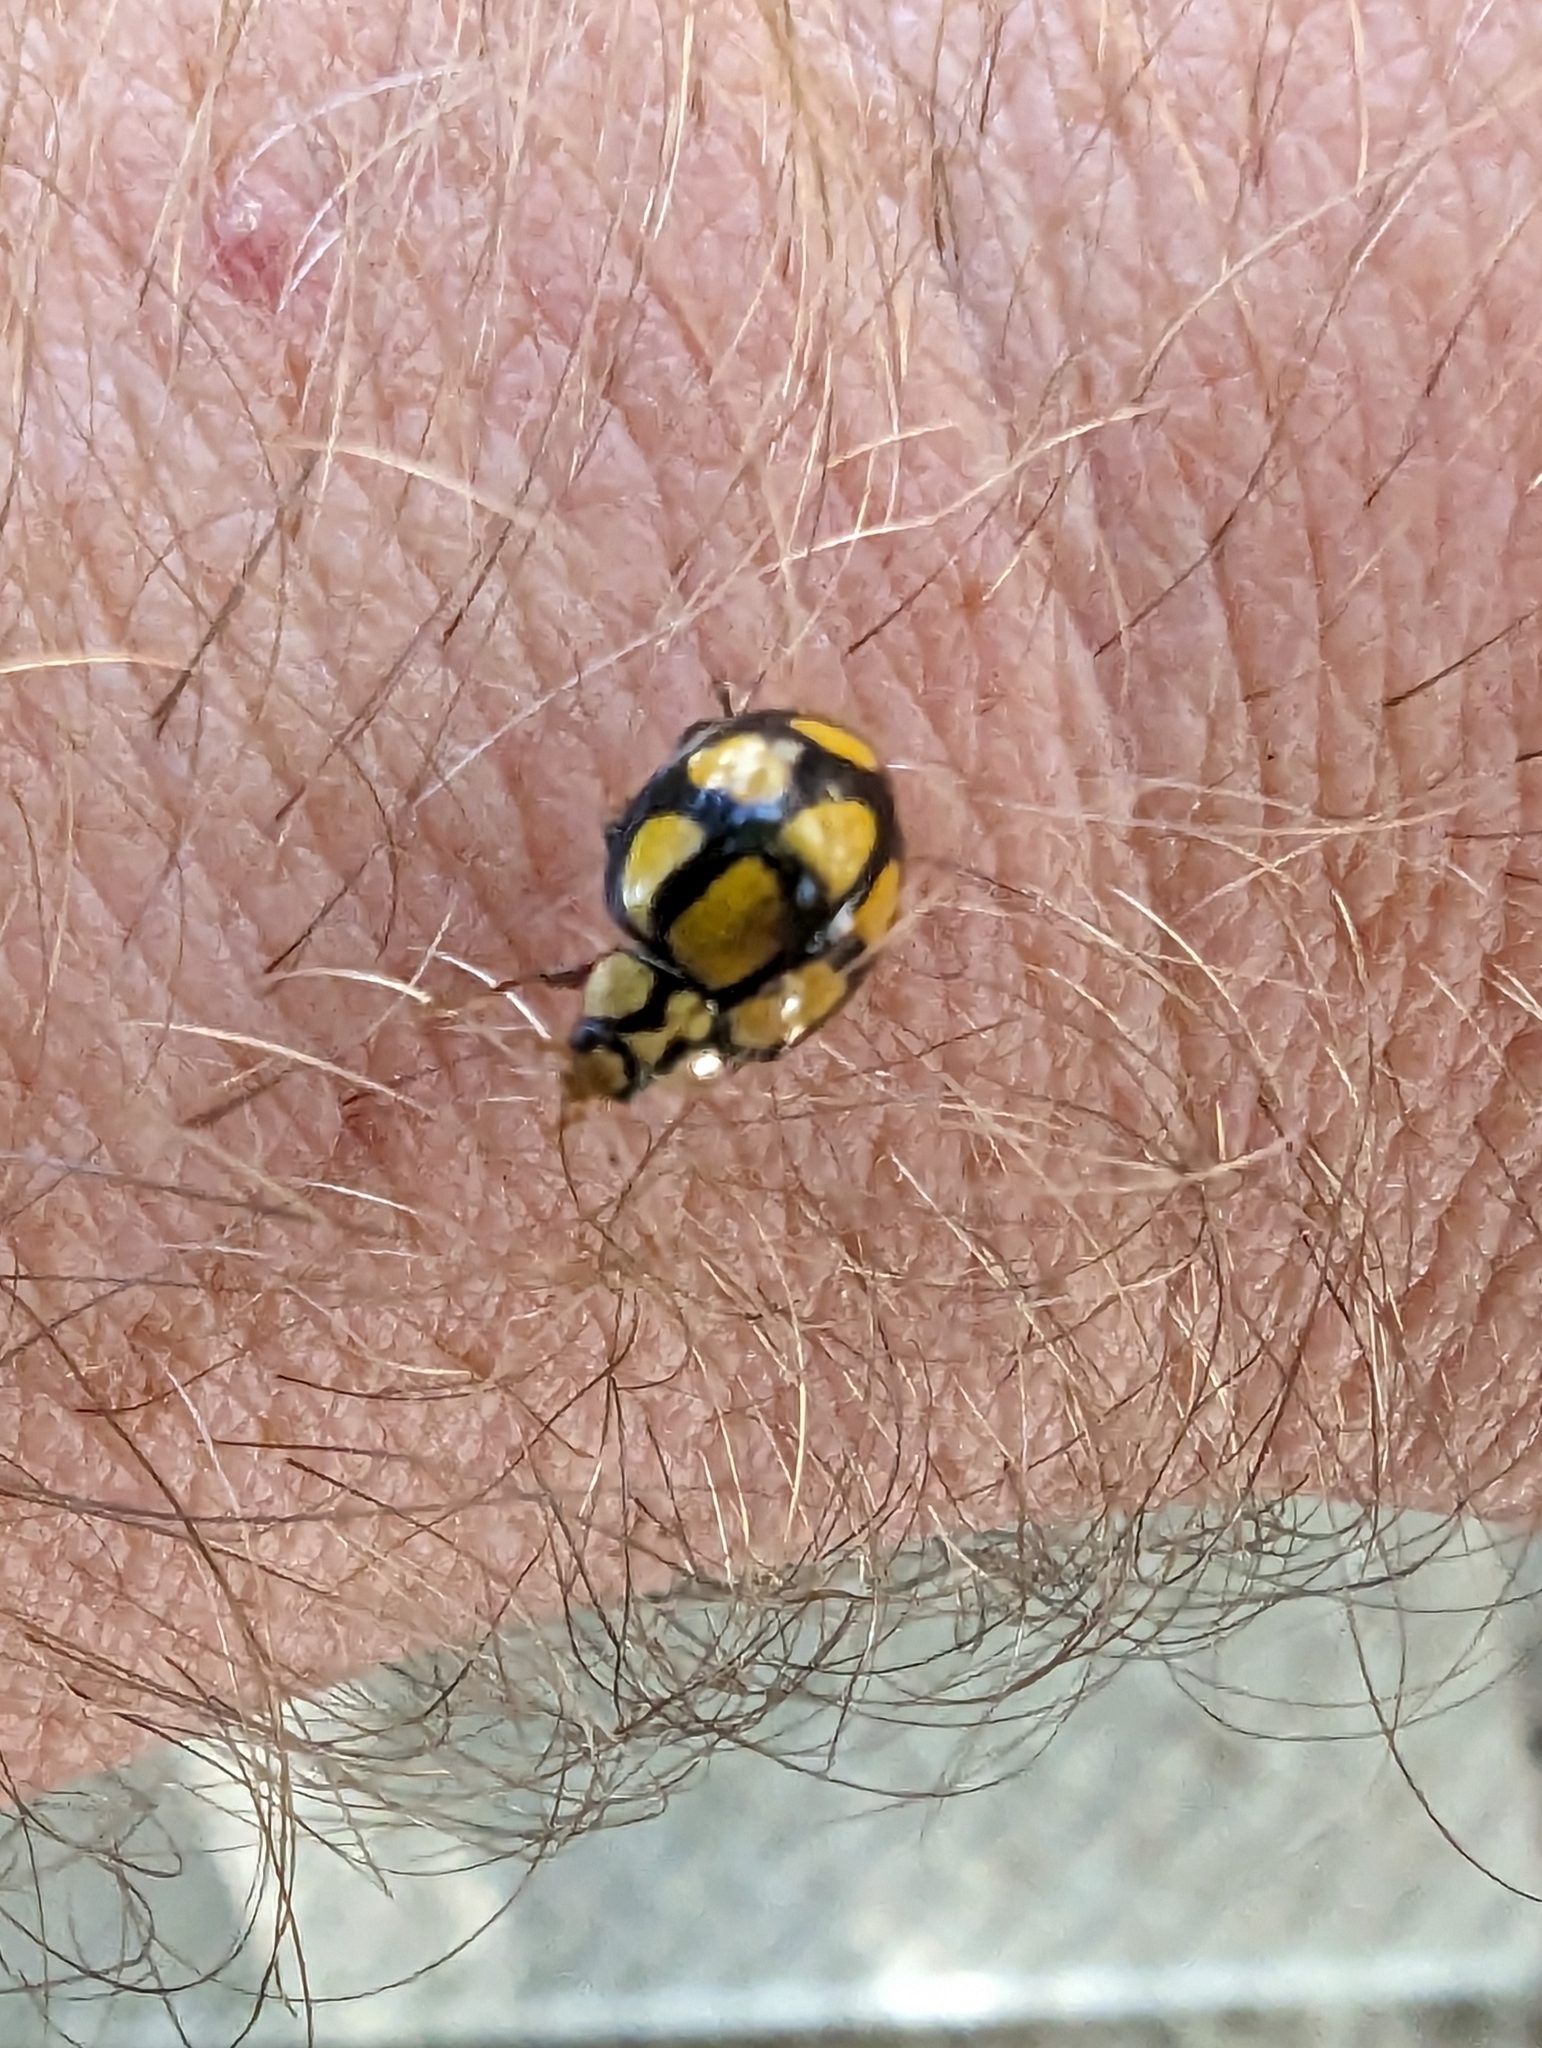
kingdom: Animalia
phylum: Arthropoda
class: Insecta
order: Coleoptera
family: Coccinellidae
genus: Harmonia
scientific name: Harmonia
